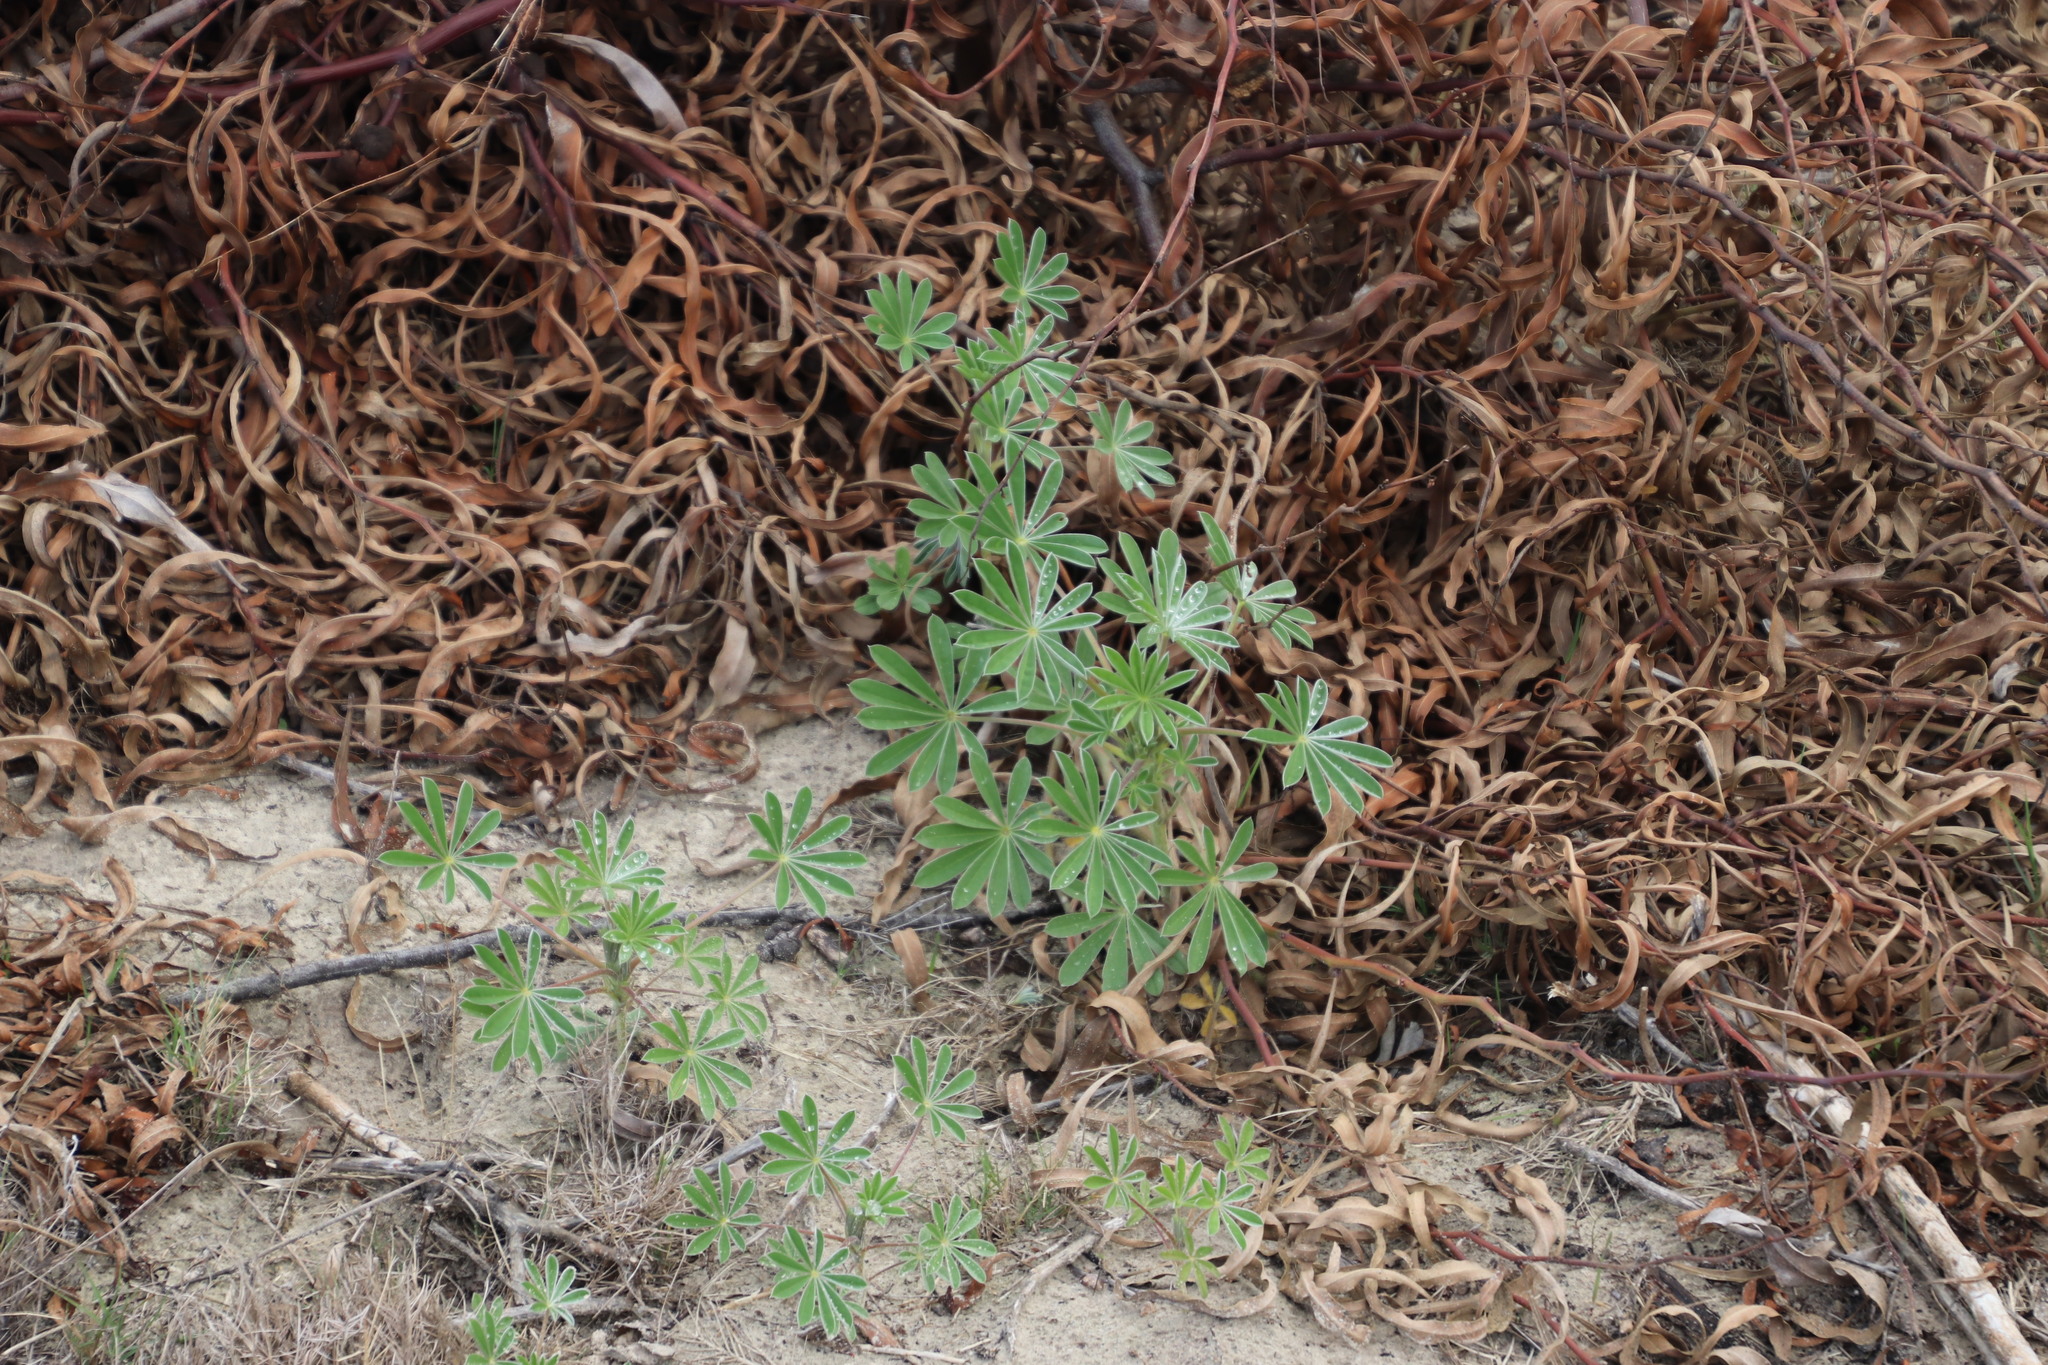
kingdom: Plantae
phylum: Tracheophyta
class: Magnoliopsida
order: Fabales
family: Fabaceae
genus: Lupinus
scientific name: Lupinus cosentinii
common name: Hairy blue lupin
